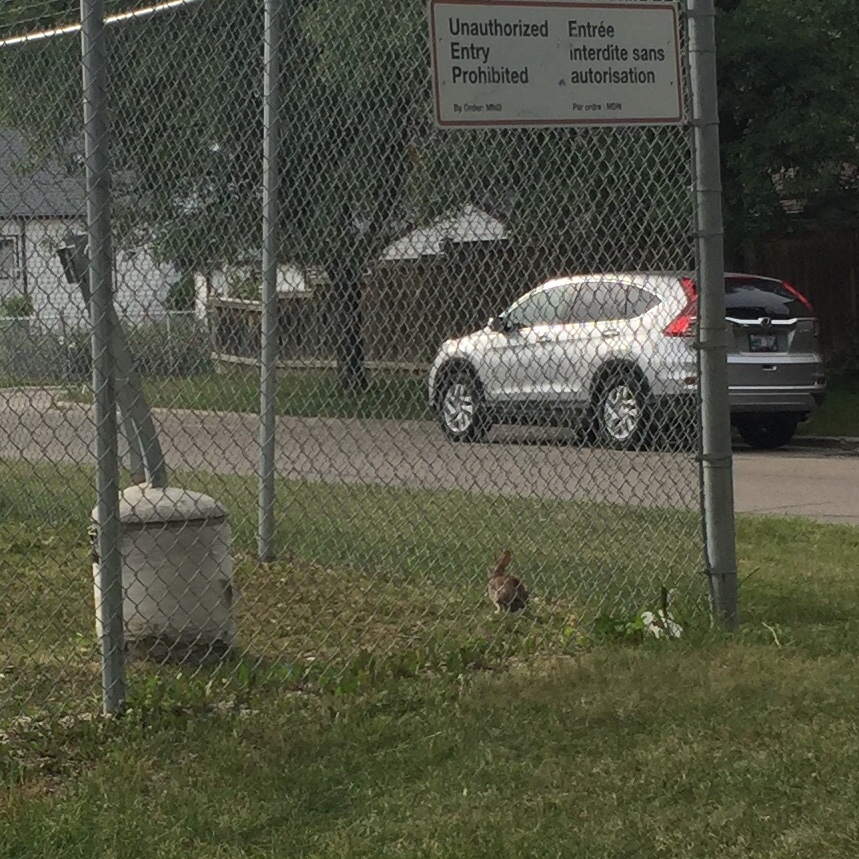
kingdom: Animalia
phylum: Chordata
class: Mammalia
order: Lagomorpha
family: Leporidae
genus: Sylvilagus
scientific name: Sylvilagus floridanus
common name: Eastern cottontail
